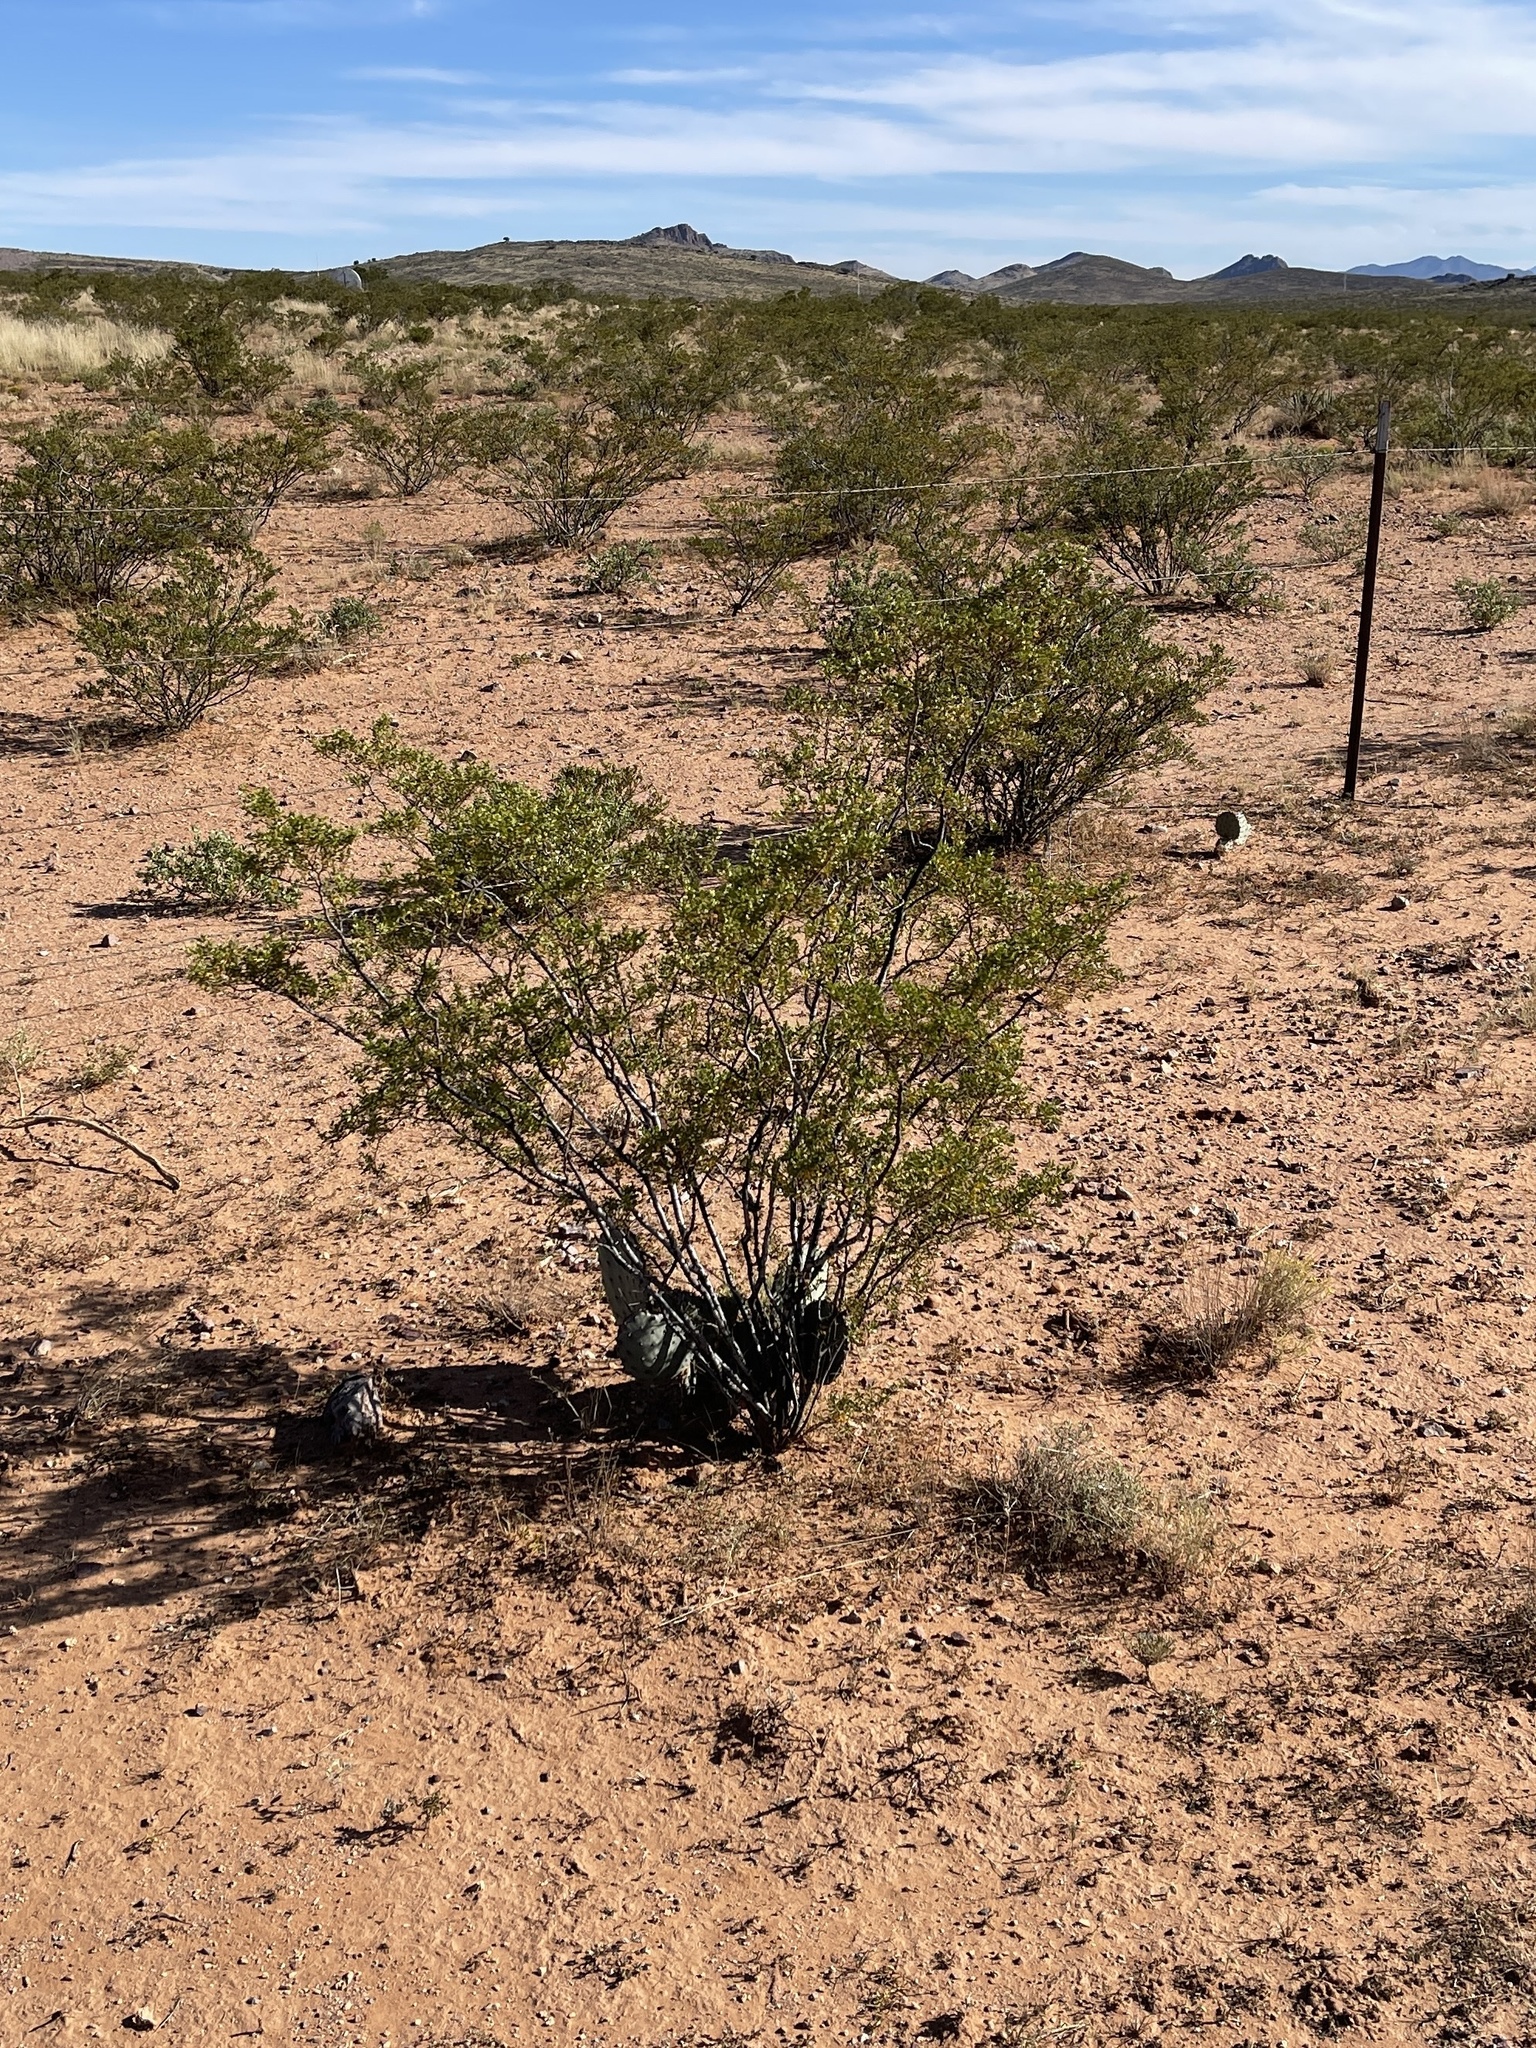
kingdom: Plantae
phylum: Tracheophyta
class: Magnoliopsida
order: Zygophyllales
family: Zygophyllaceae
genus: Larrea
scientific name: Larrea tridentata
